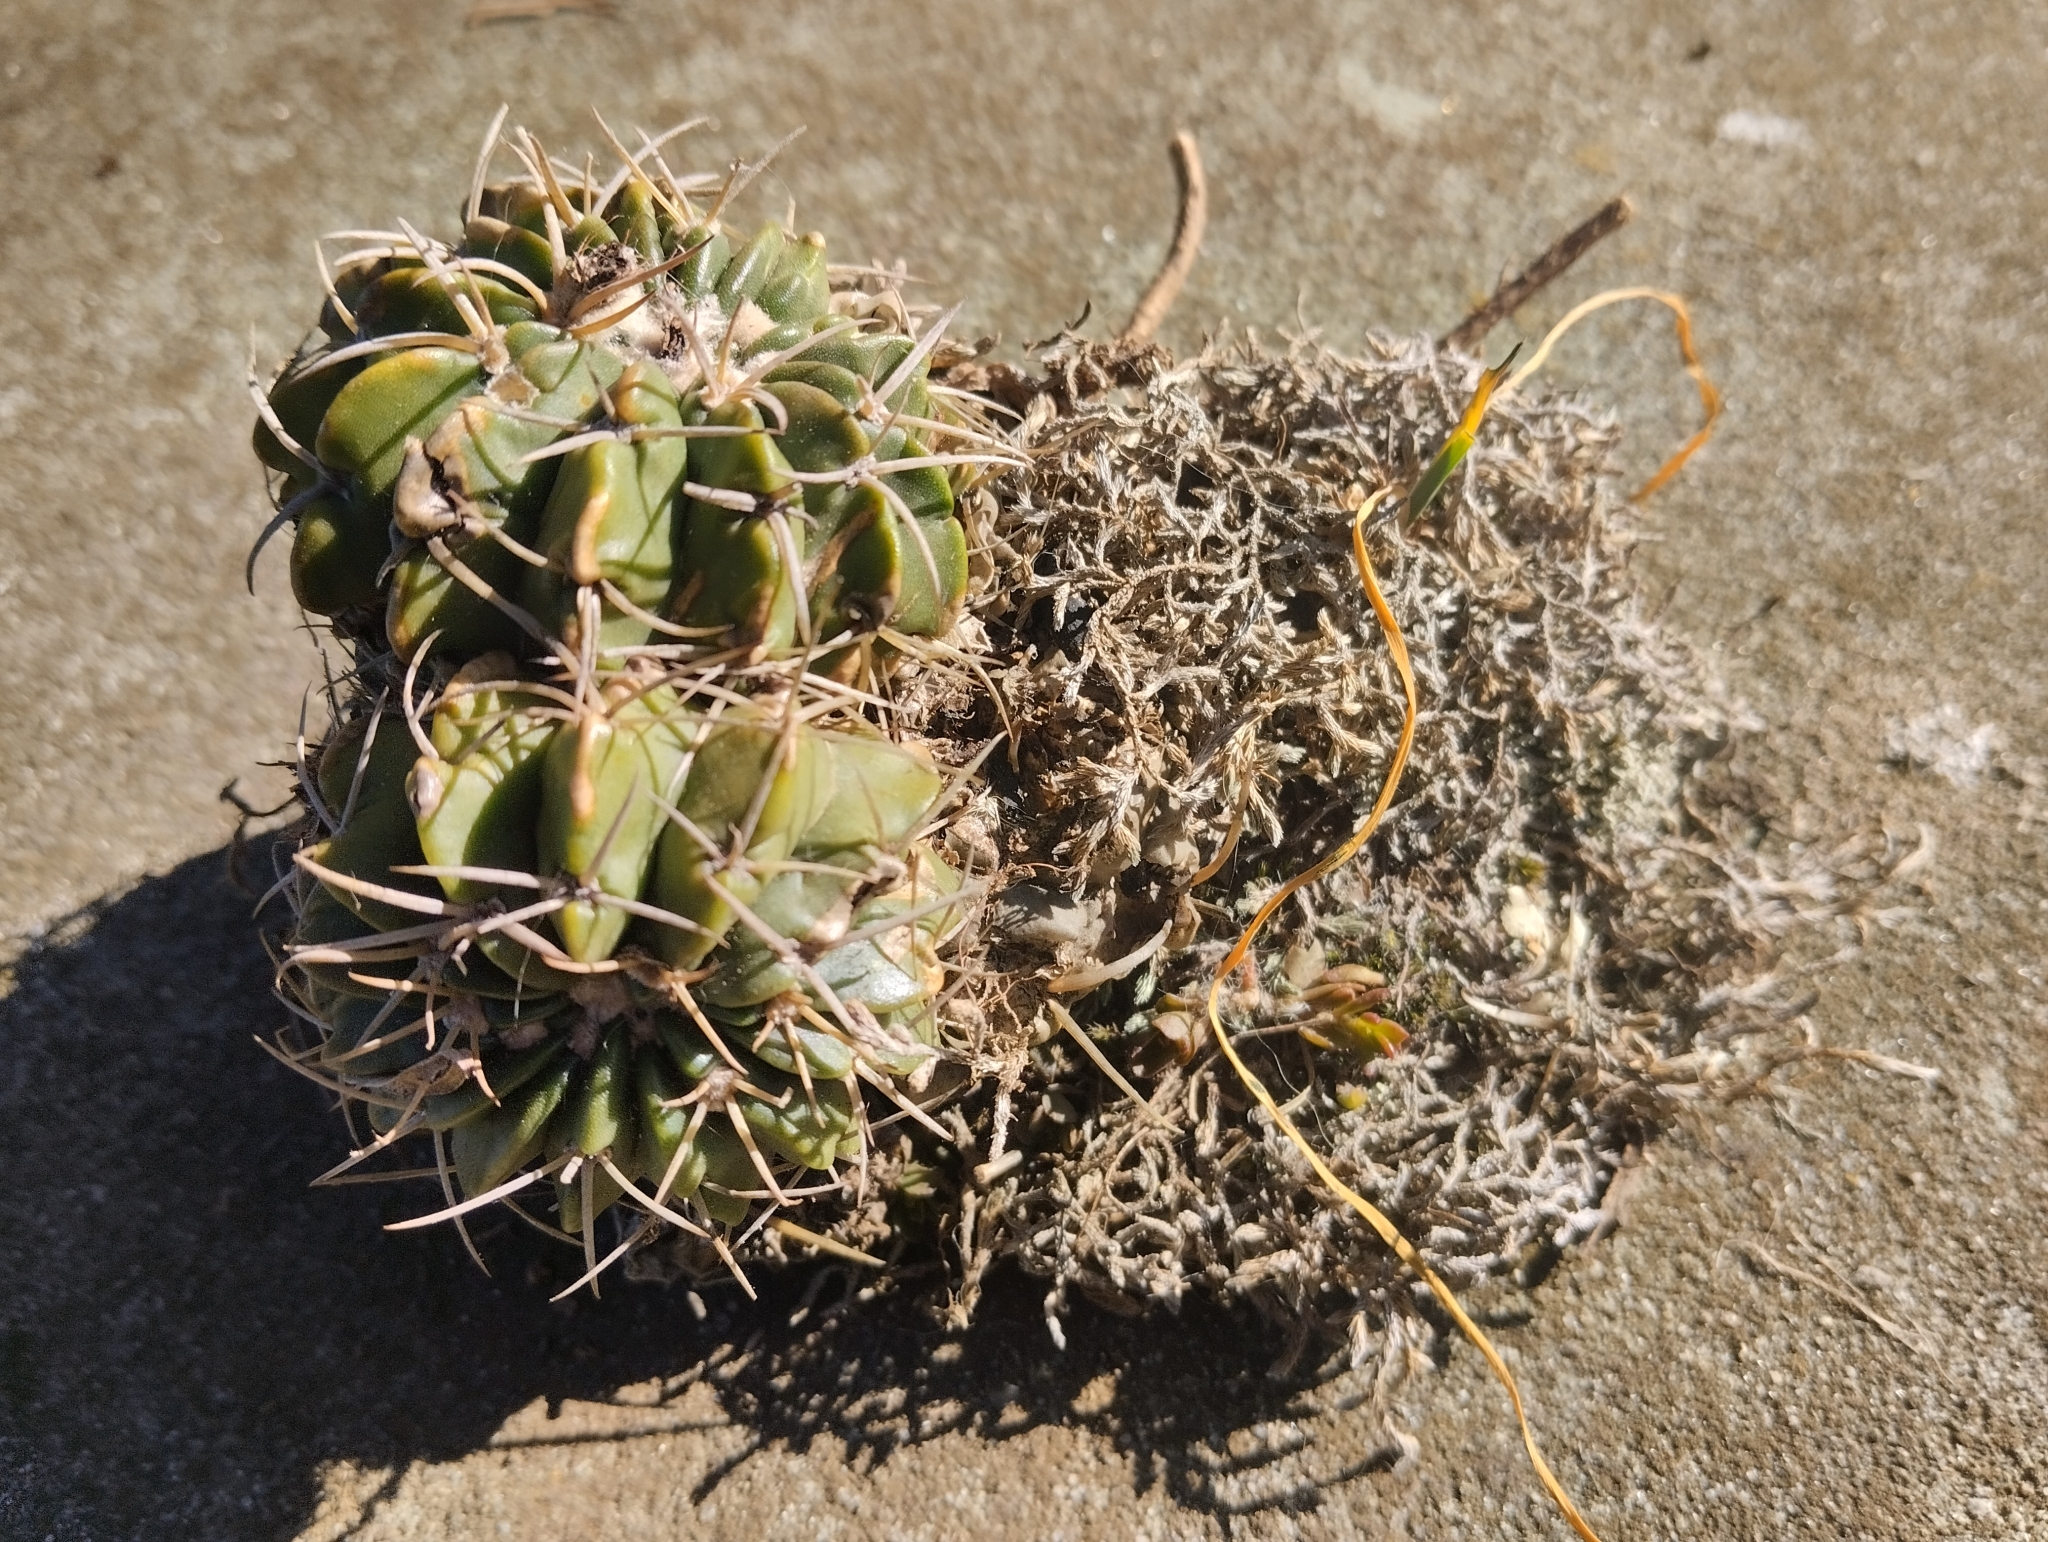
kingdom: Plantae
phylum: Tracheophyta
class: Magnoliopsida
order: Caryophyllales
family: Cactaceae
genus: Parodia
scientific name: Parodia erinacea
